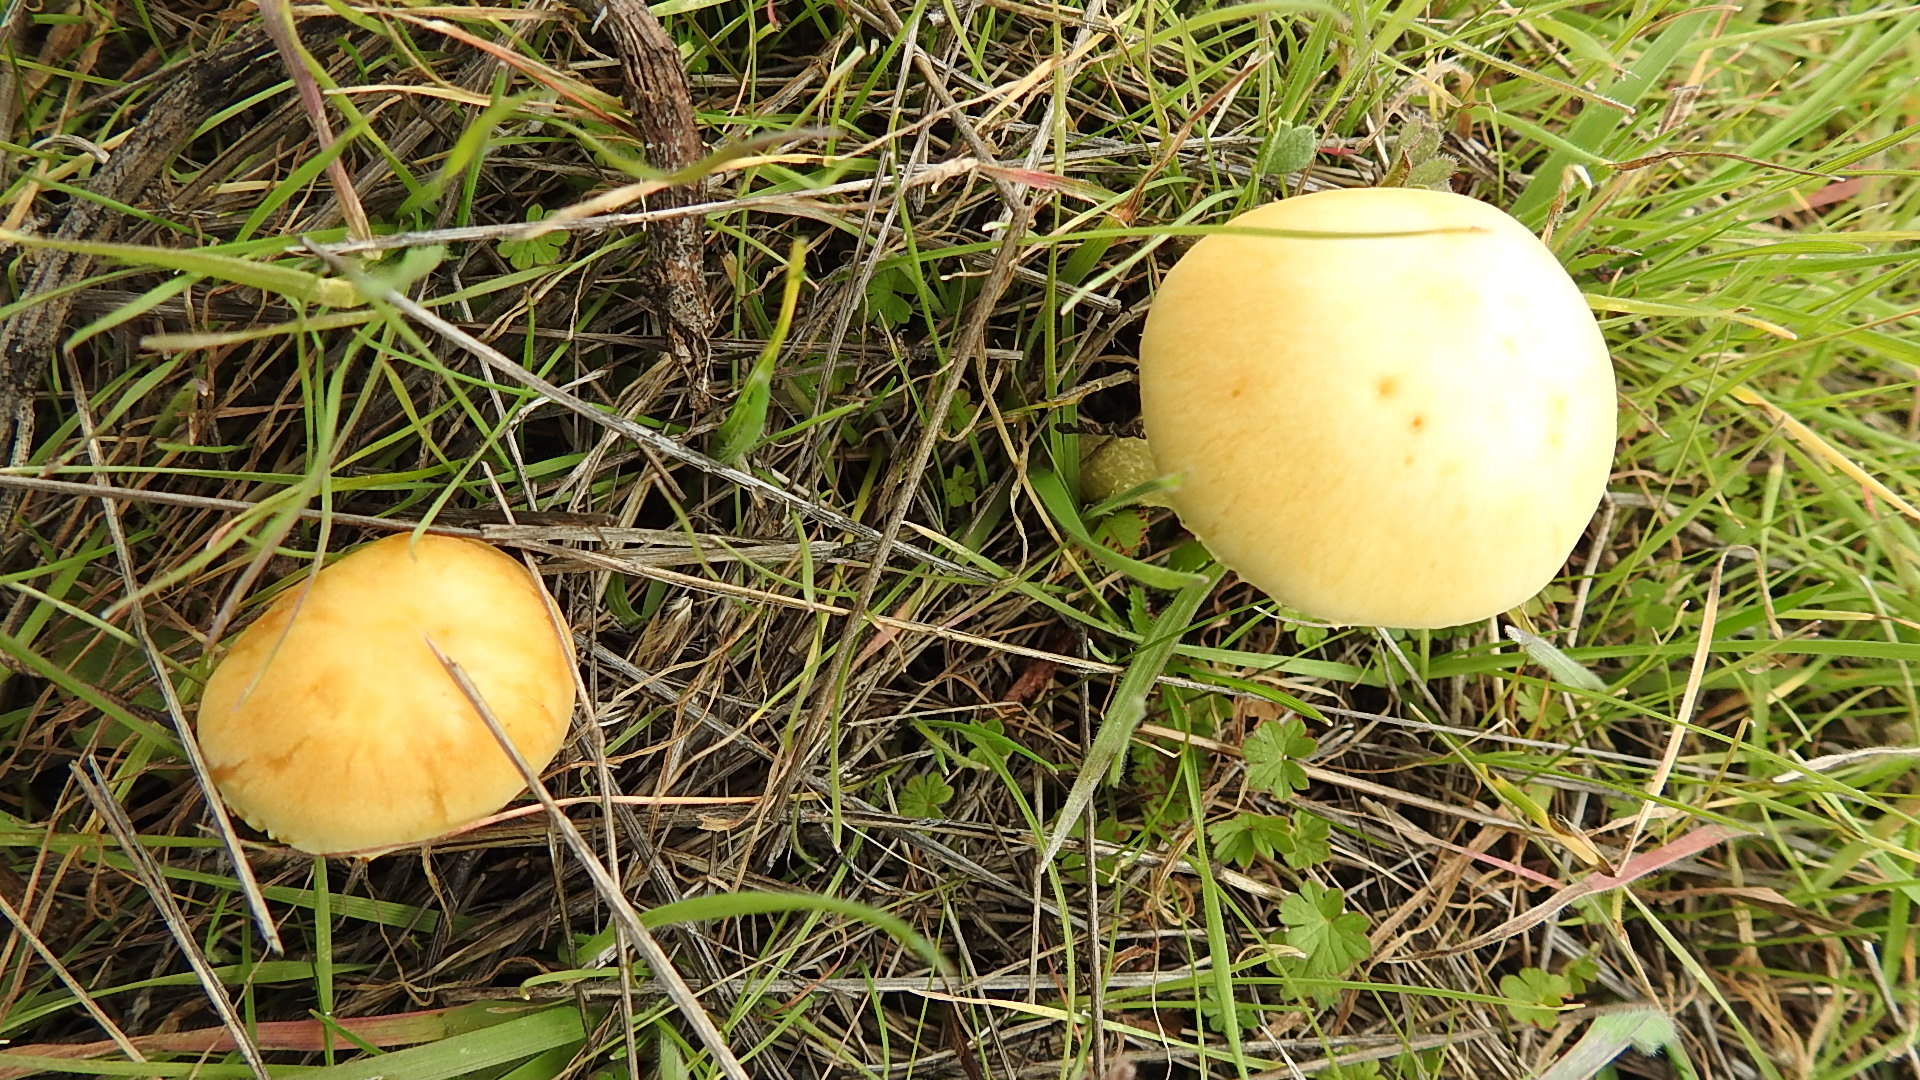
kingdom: Fungi
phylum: Basidiomycota
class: Agaricomycetes
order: Agaricales
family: Strophariaceae
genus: Leratiomyces
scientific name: Leratiomyces percevalii
